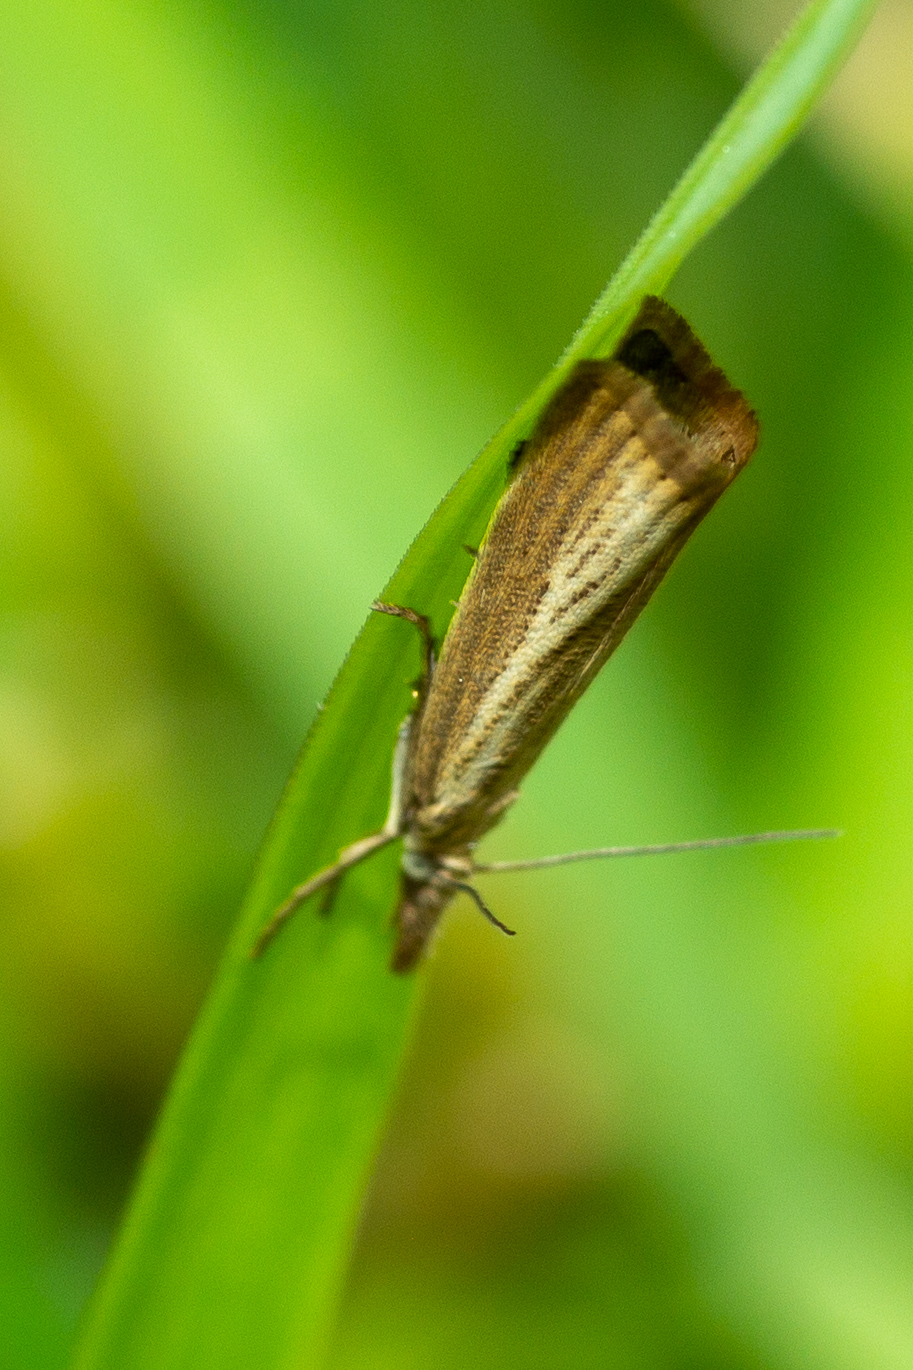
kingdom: Animalia
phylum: Arthropoda
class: Insecta
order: Lepidoptera
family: Crambidae
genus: Agriphila
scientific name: Agriphila straminella
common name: Straw grass-veneer
